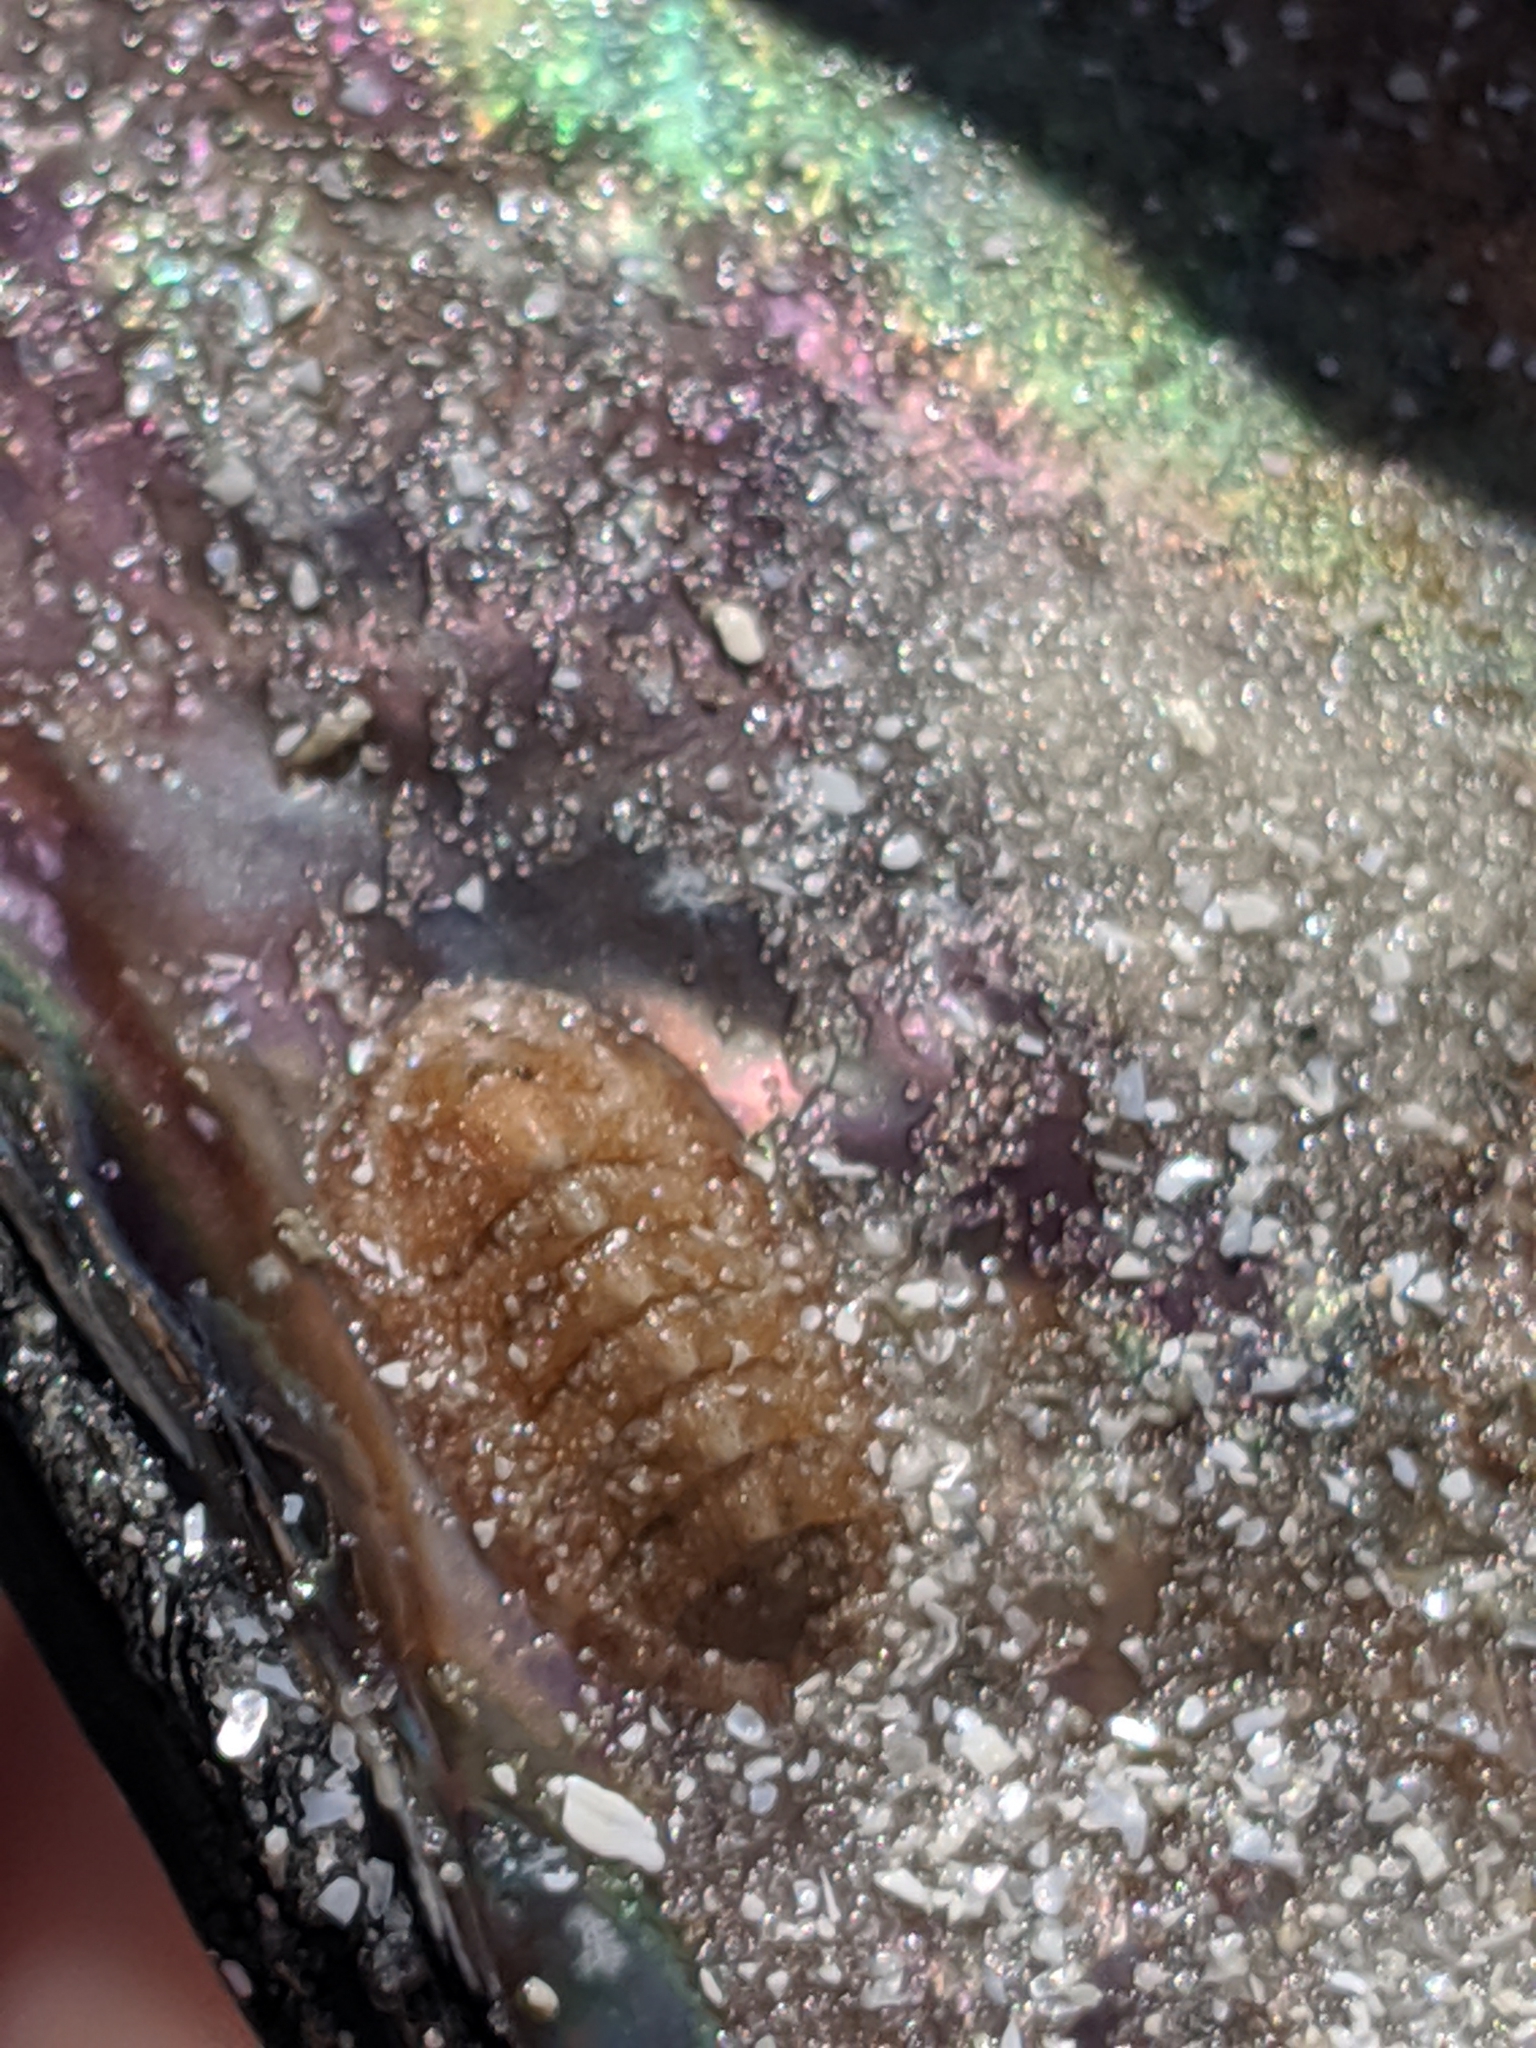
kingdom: Animalia
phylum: Mollusca
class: Polyplacophora
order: Chitonida
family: Chaetopleuridae
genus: Chaetopleura
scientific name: Chaetopleura apiculata
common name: Bee chiton
